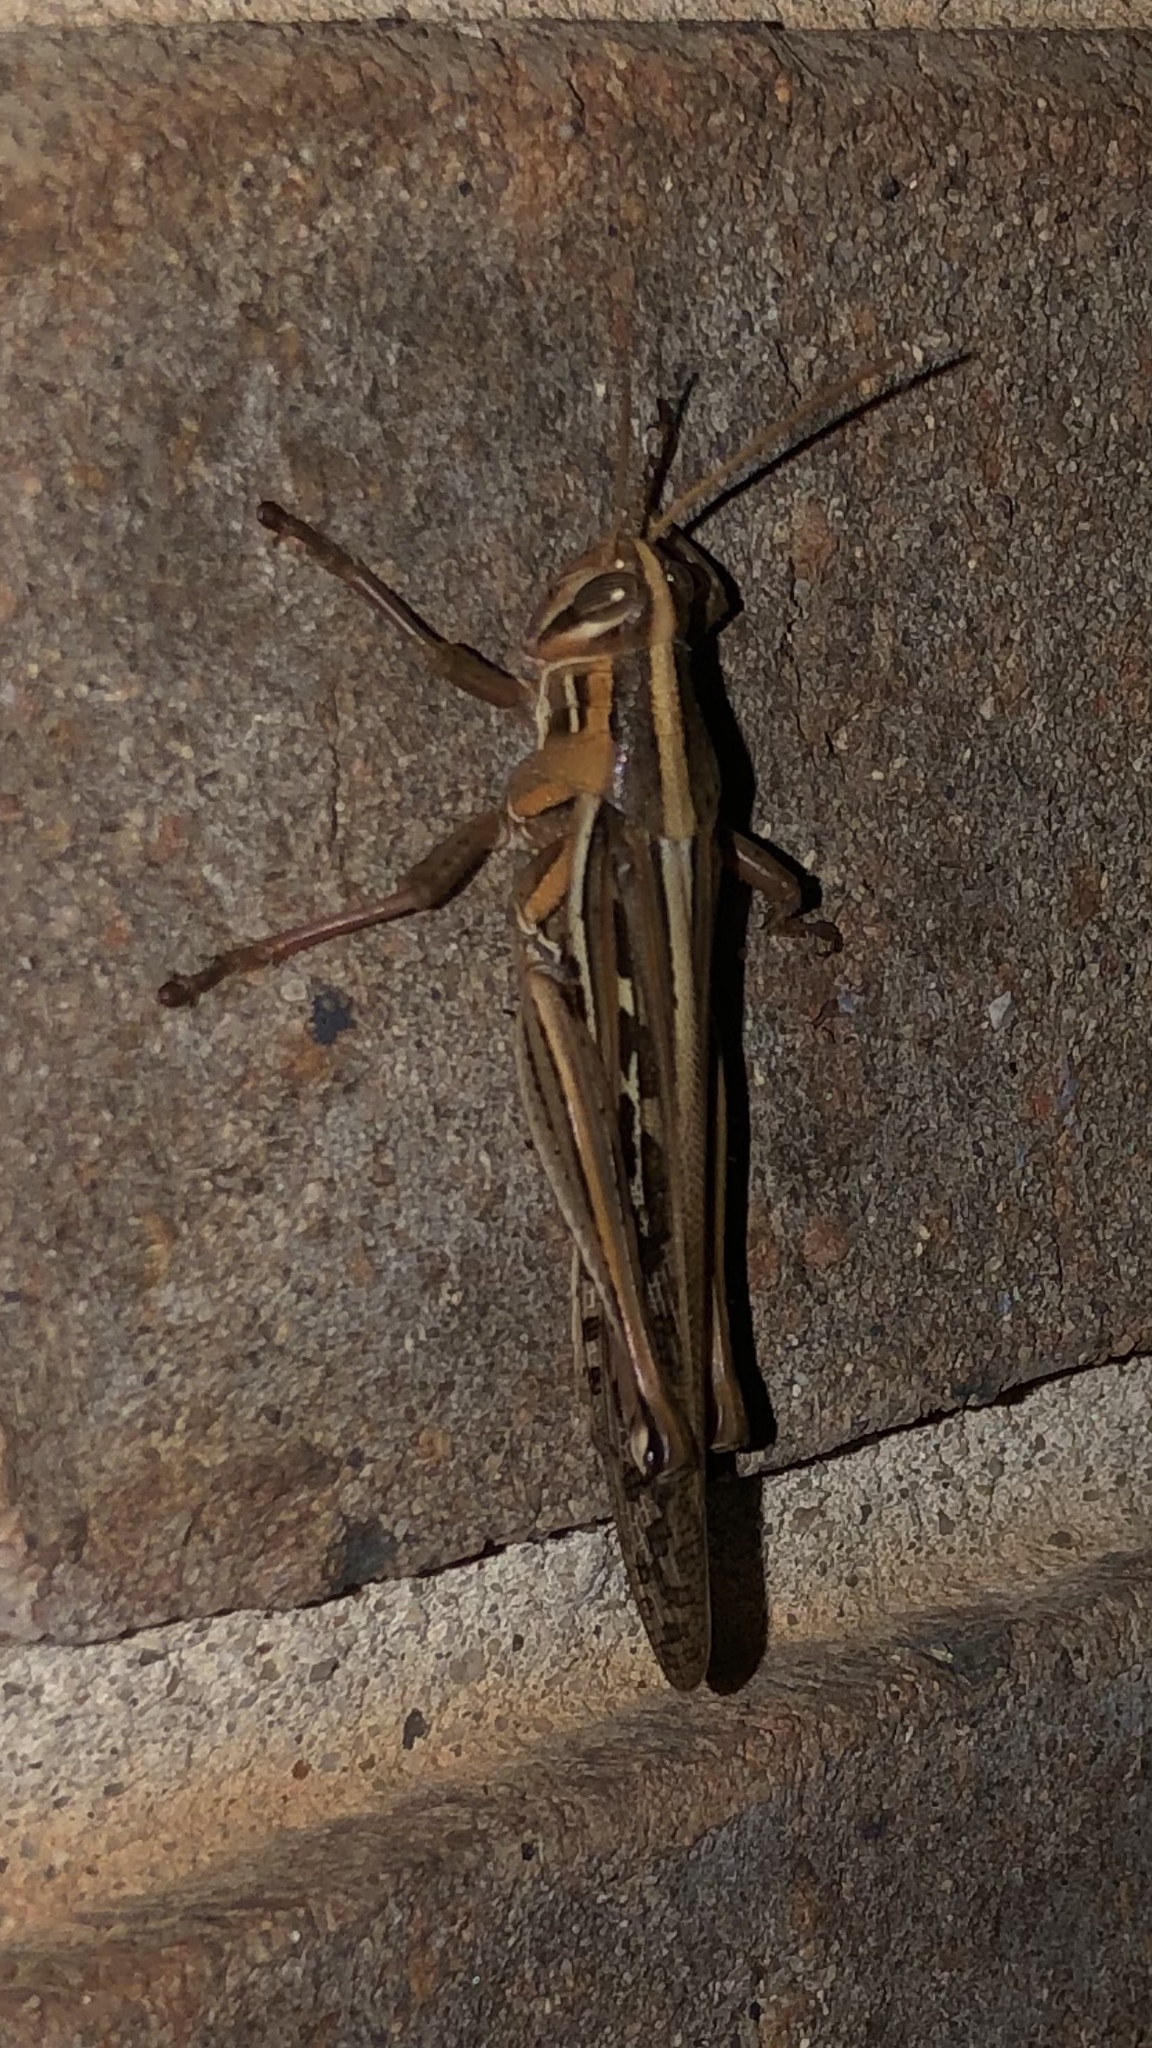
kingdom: Animalia
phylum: Arthropoda
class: Insecta
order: Orthoptera
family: Acrididae
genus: Schistocerca
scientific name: Schistocerca americana
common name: American bird locust
